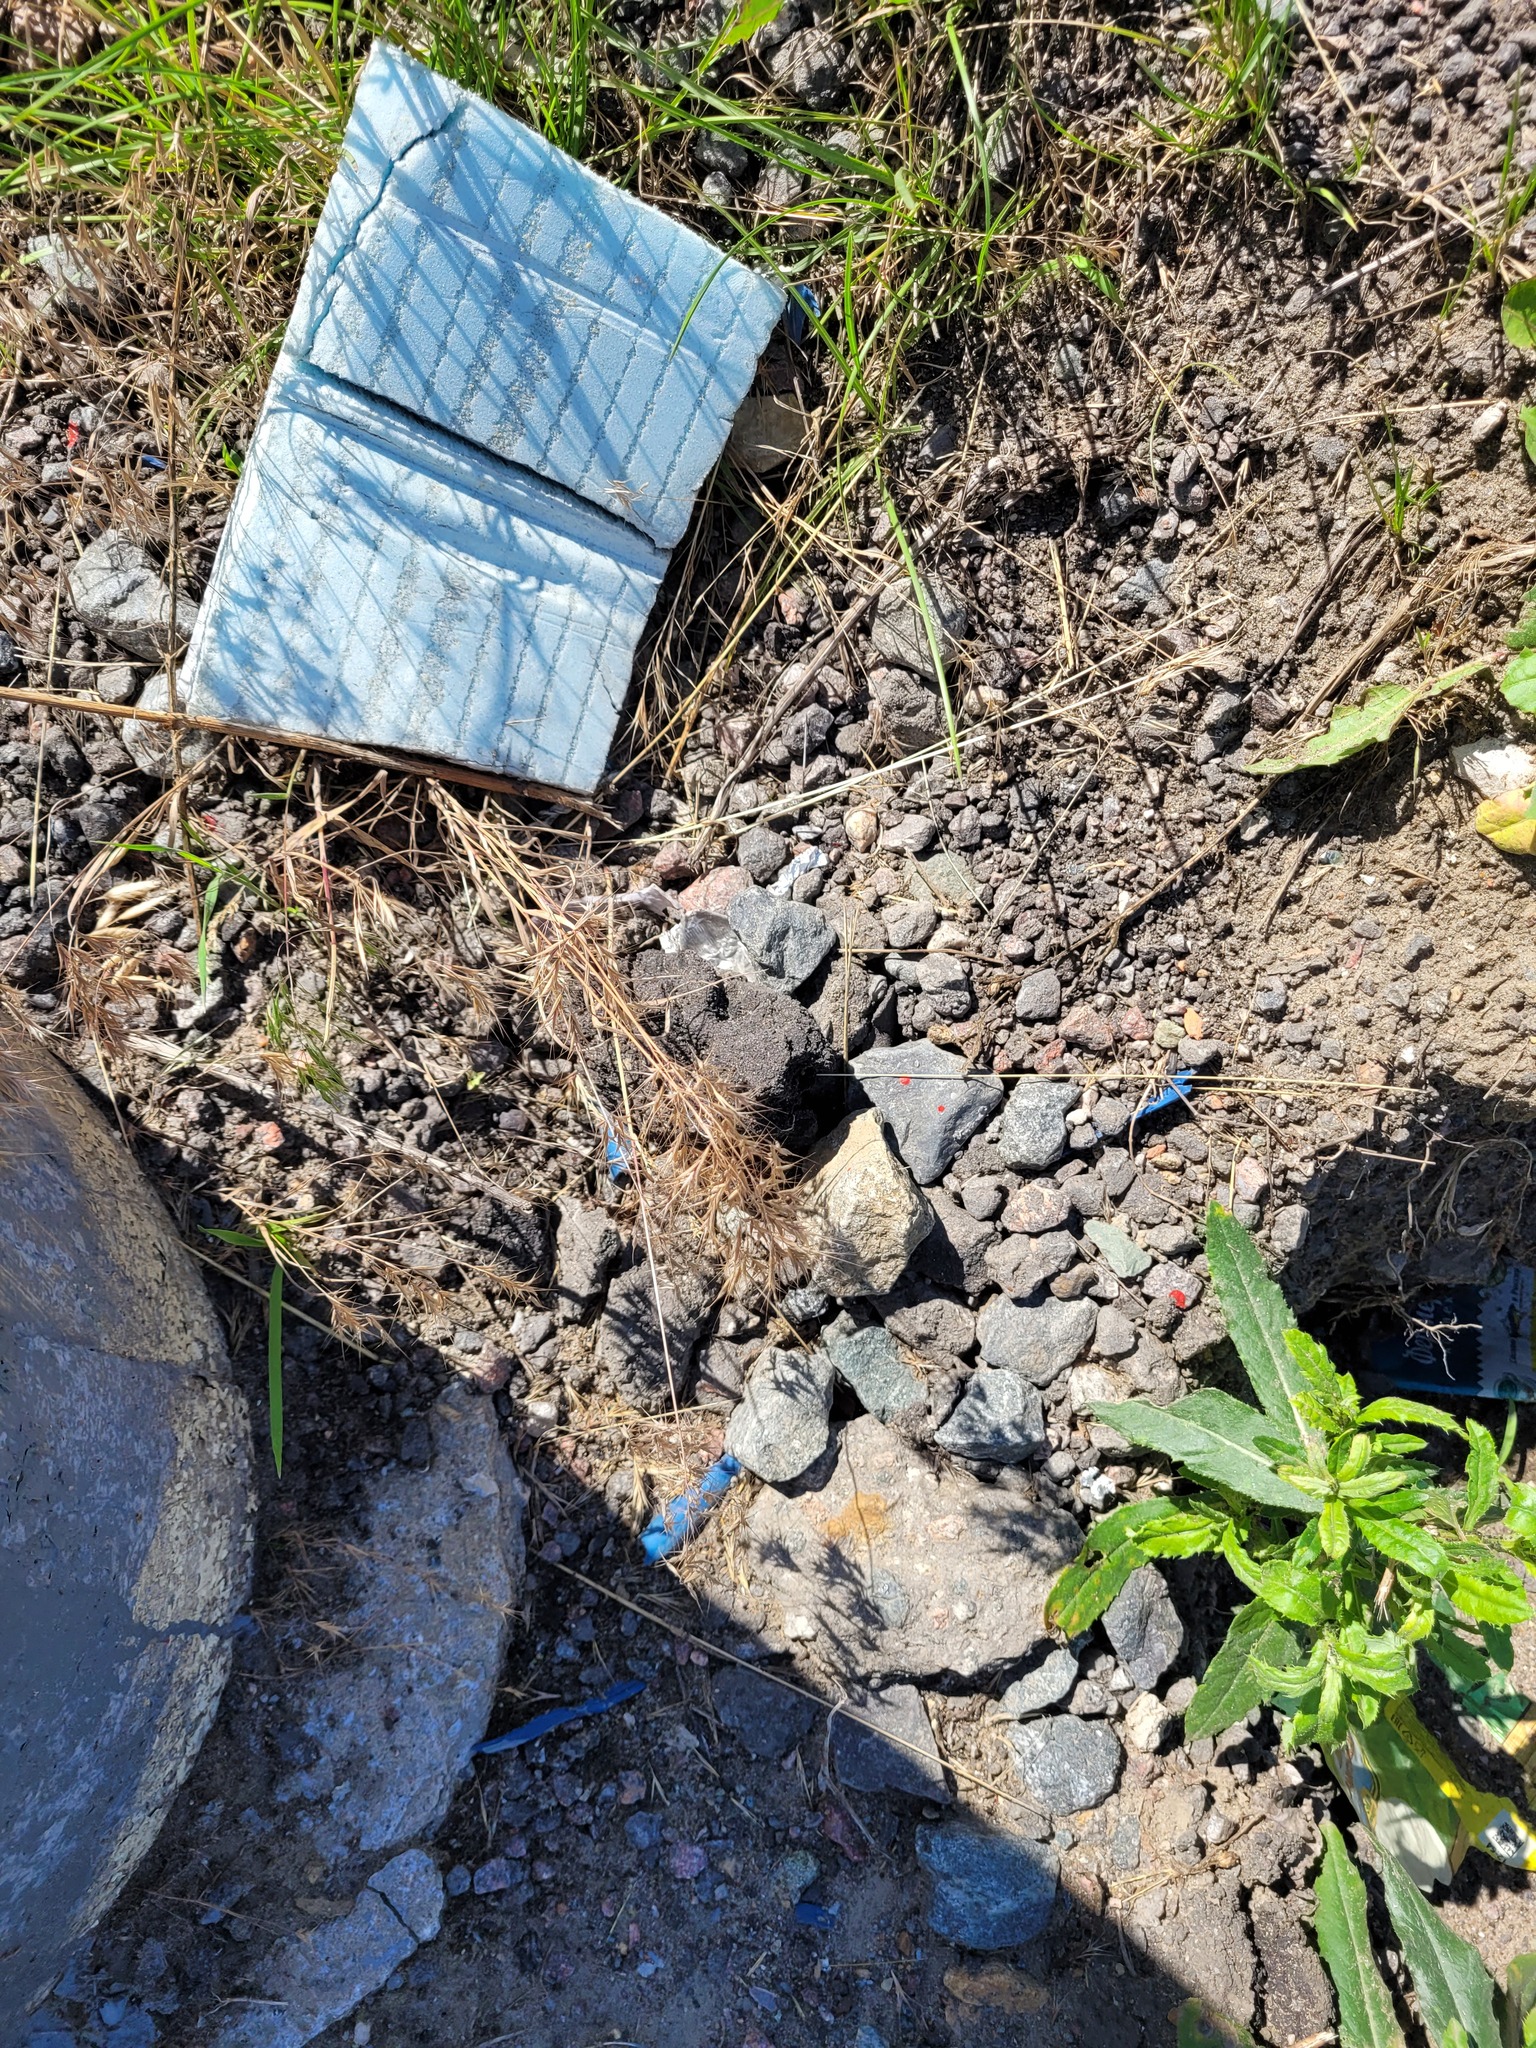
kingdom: Plantae
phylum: Tracheophyta
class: Liliopsida
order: Poales
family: Poaceae
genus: Bromus
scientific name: Bromus tectorum
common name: Cheatgrass
